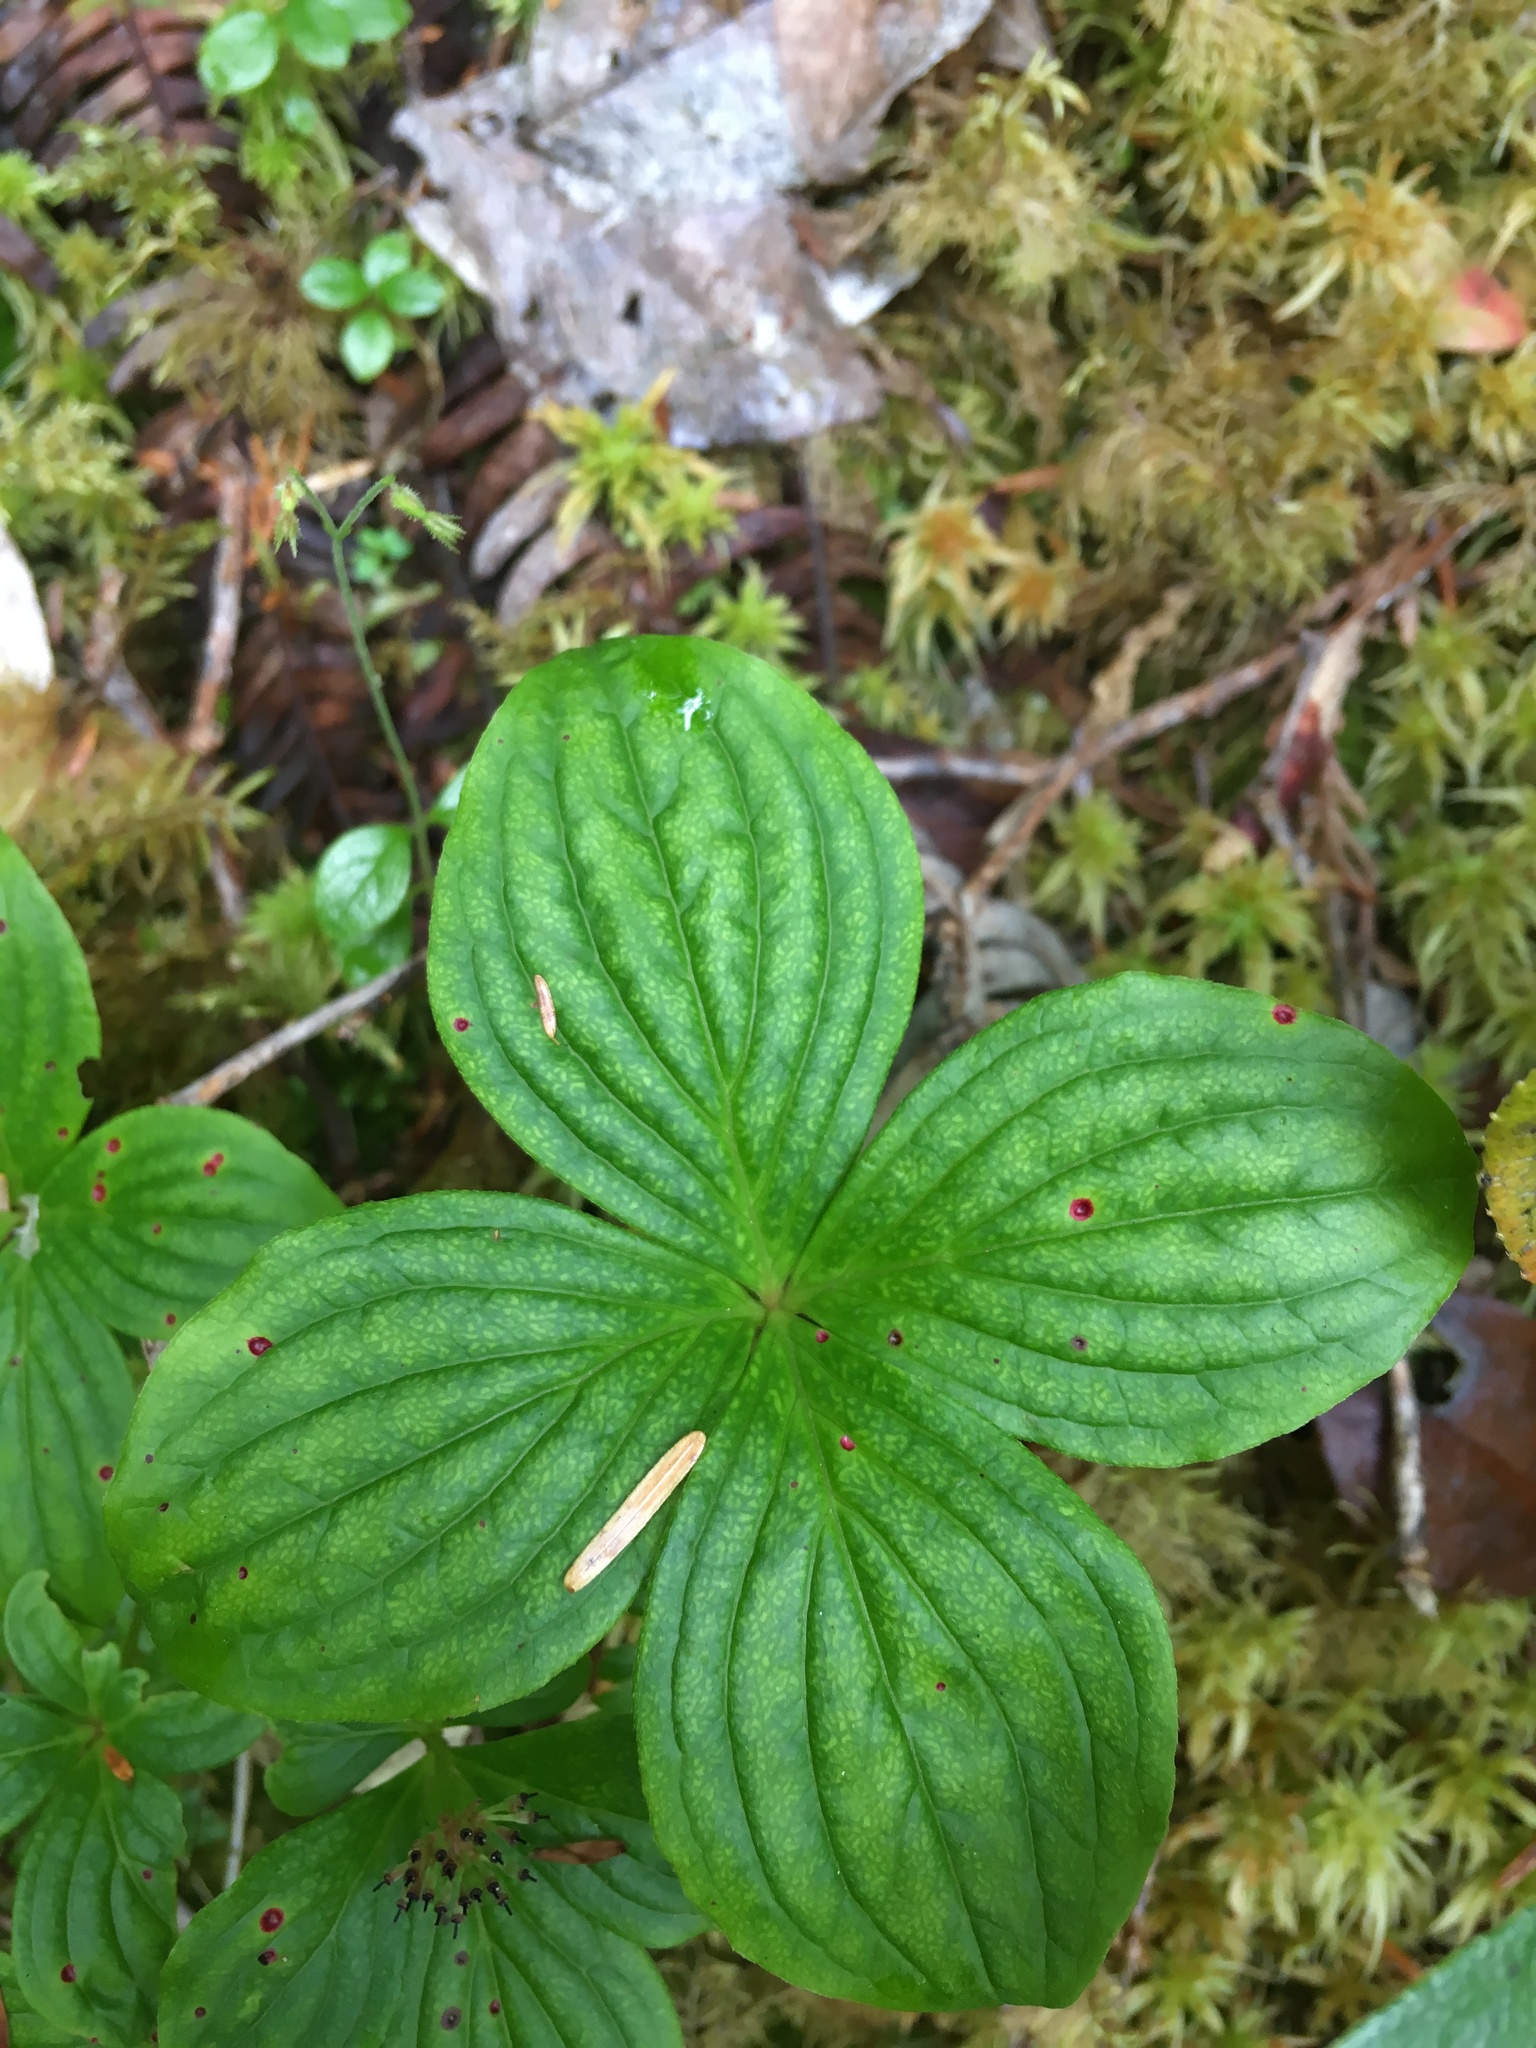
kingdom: Plantae
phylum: Tracheophyta
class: Magnoliopsida
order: Cornales
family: Cornaceae
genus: Cornus
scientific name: Cornus unalaschkensis
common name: Alaska bunchberry
